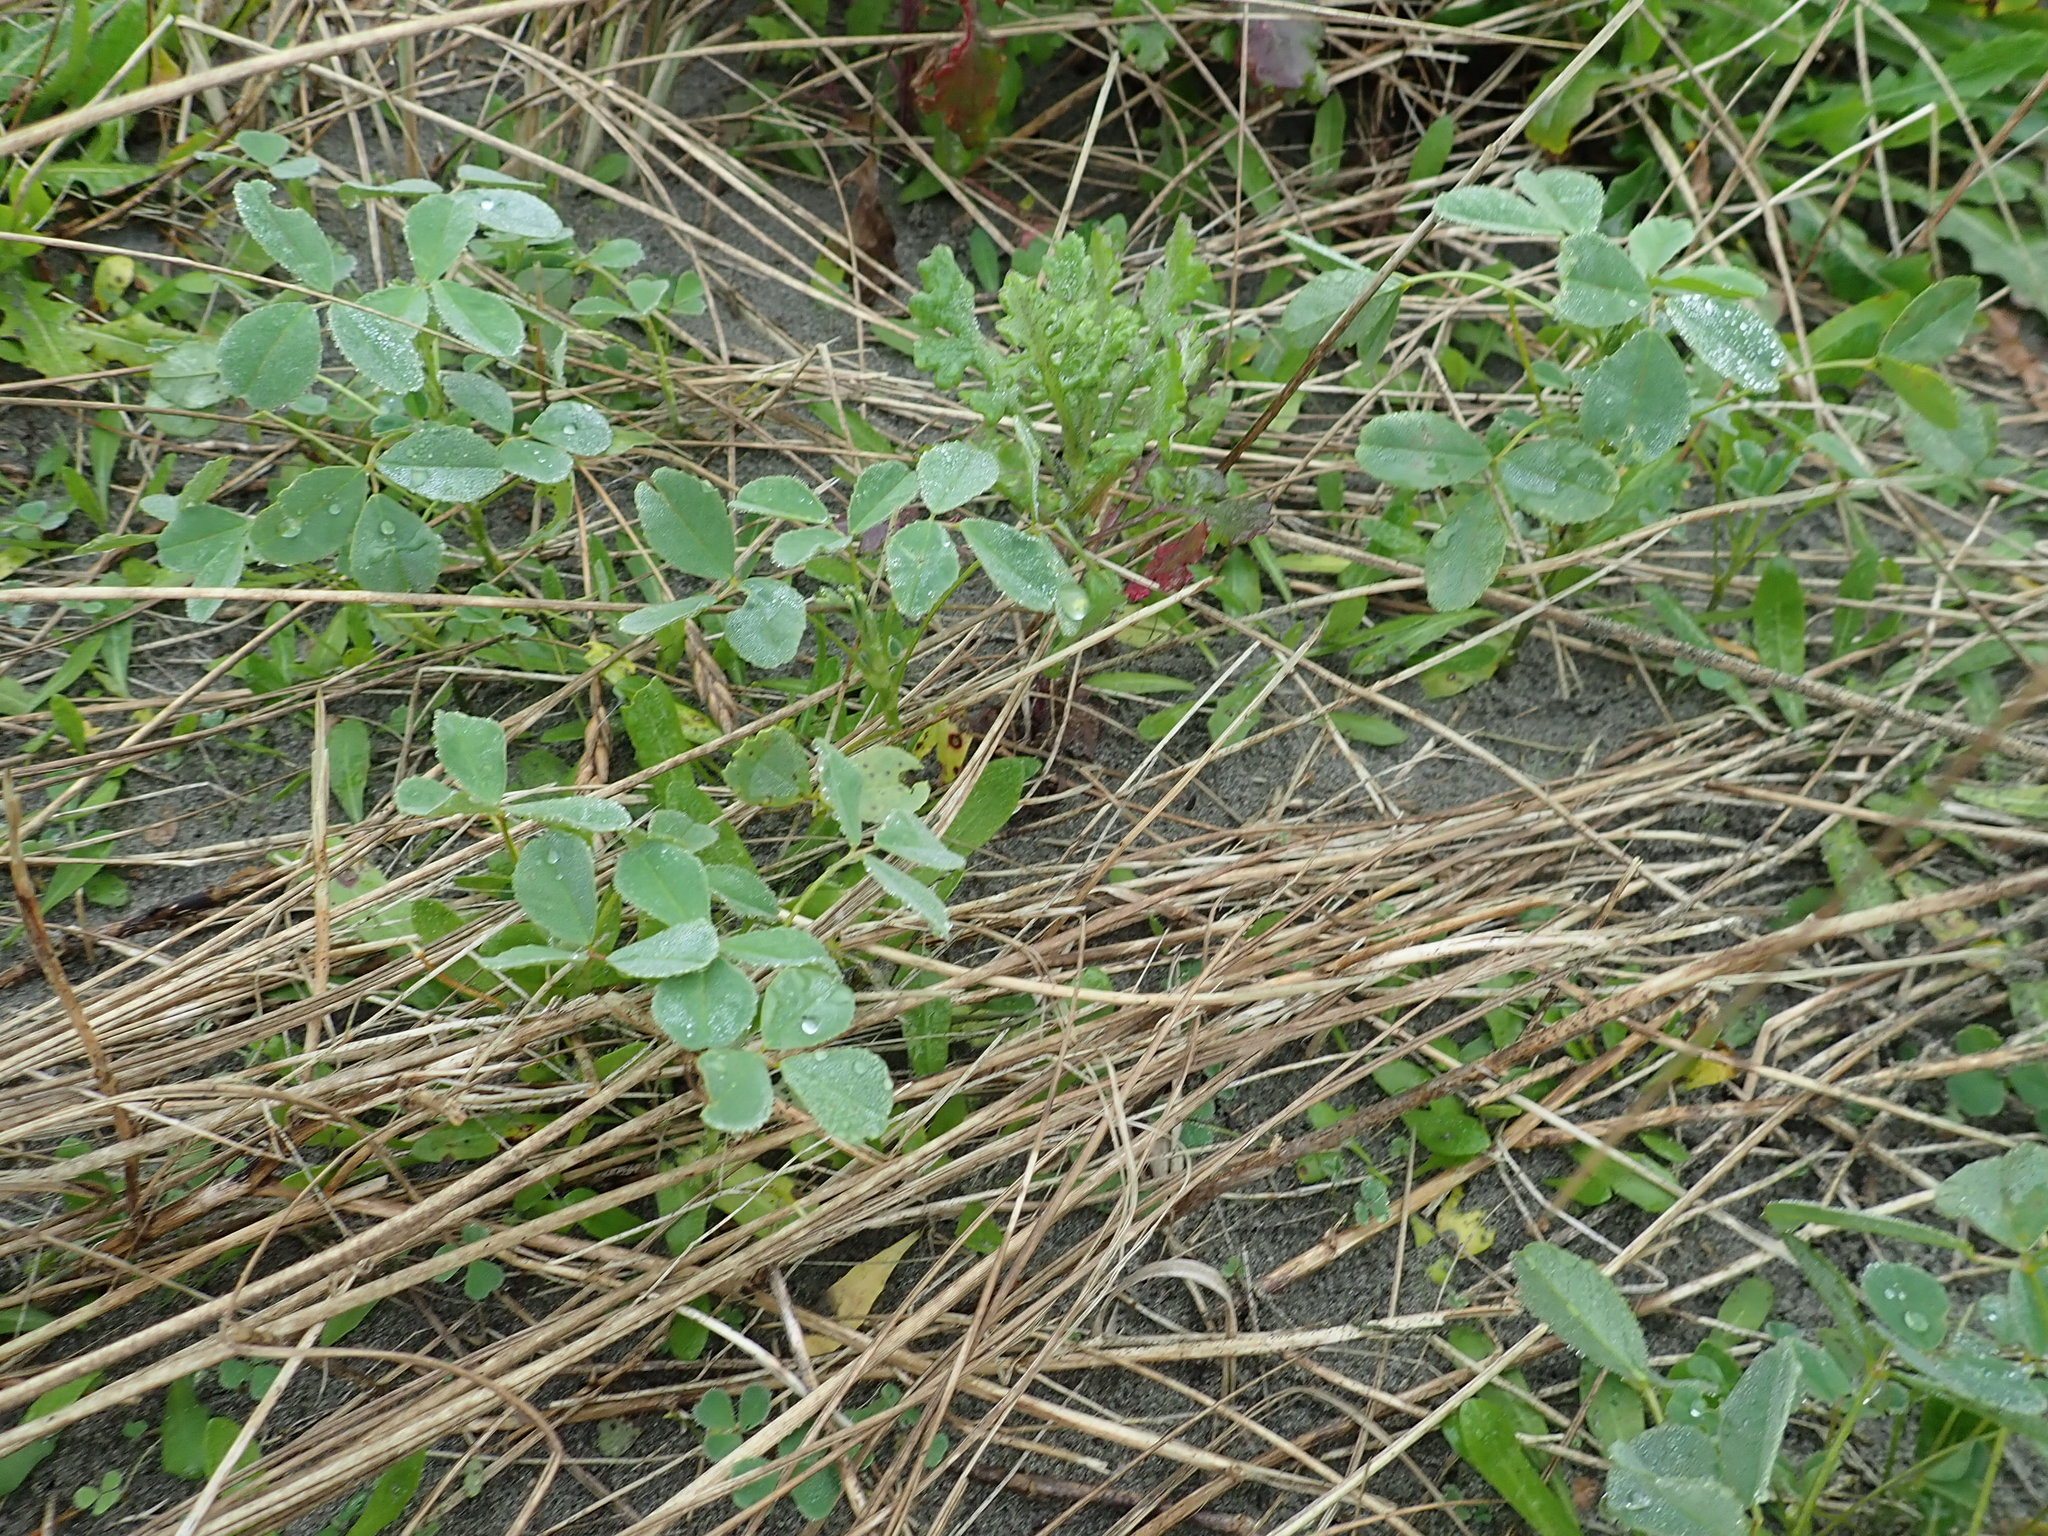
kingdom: Plantae
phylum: Tracheophyta
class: Magnoliopsida
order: Fabales
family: Fabaceae
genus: Melilotus
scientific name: Melilotus indicus
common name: Small melilot
